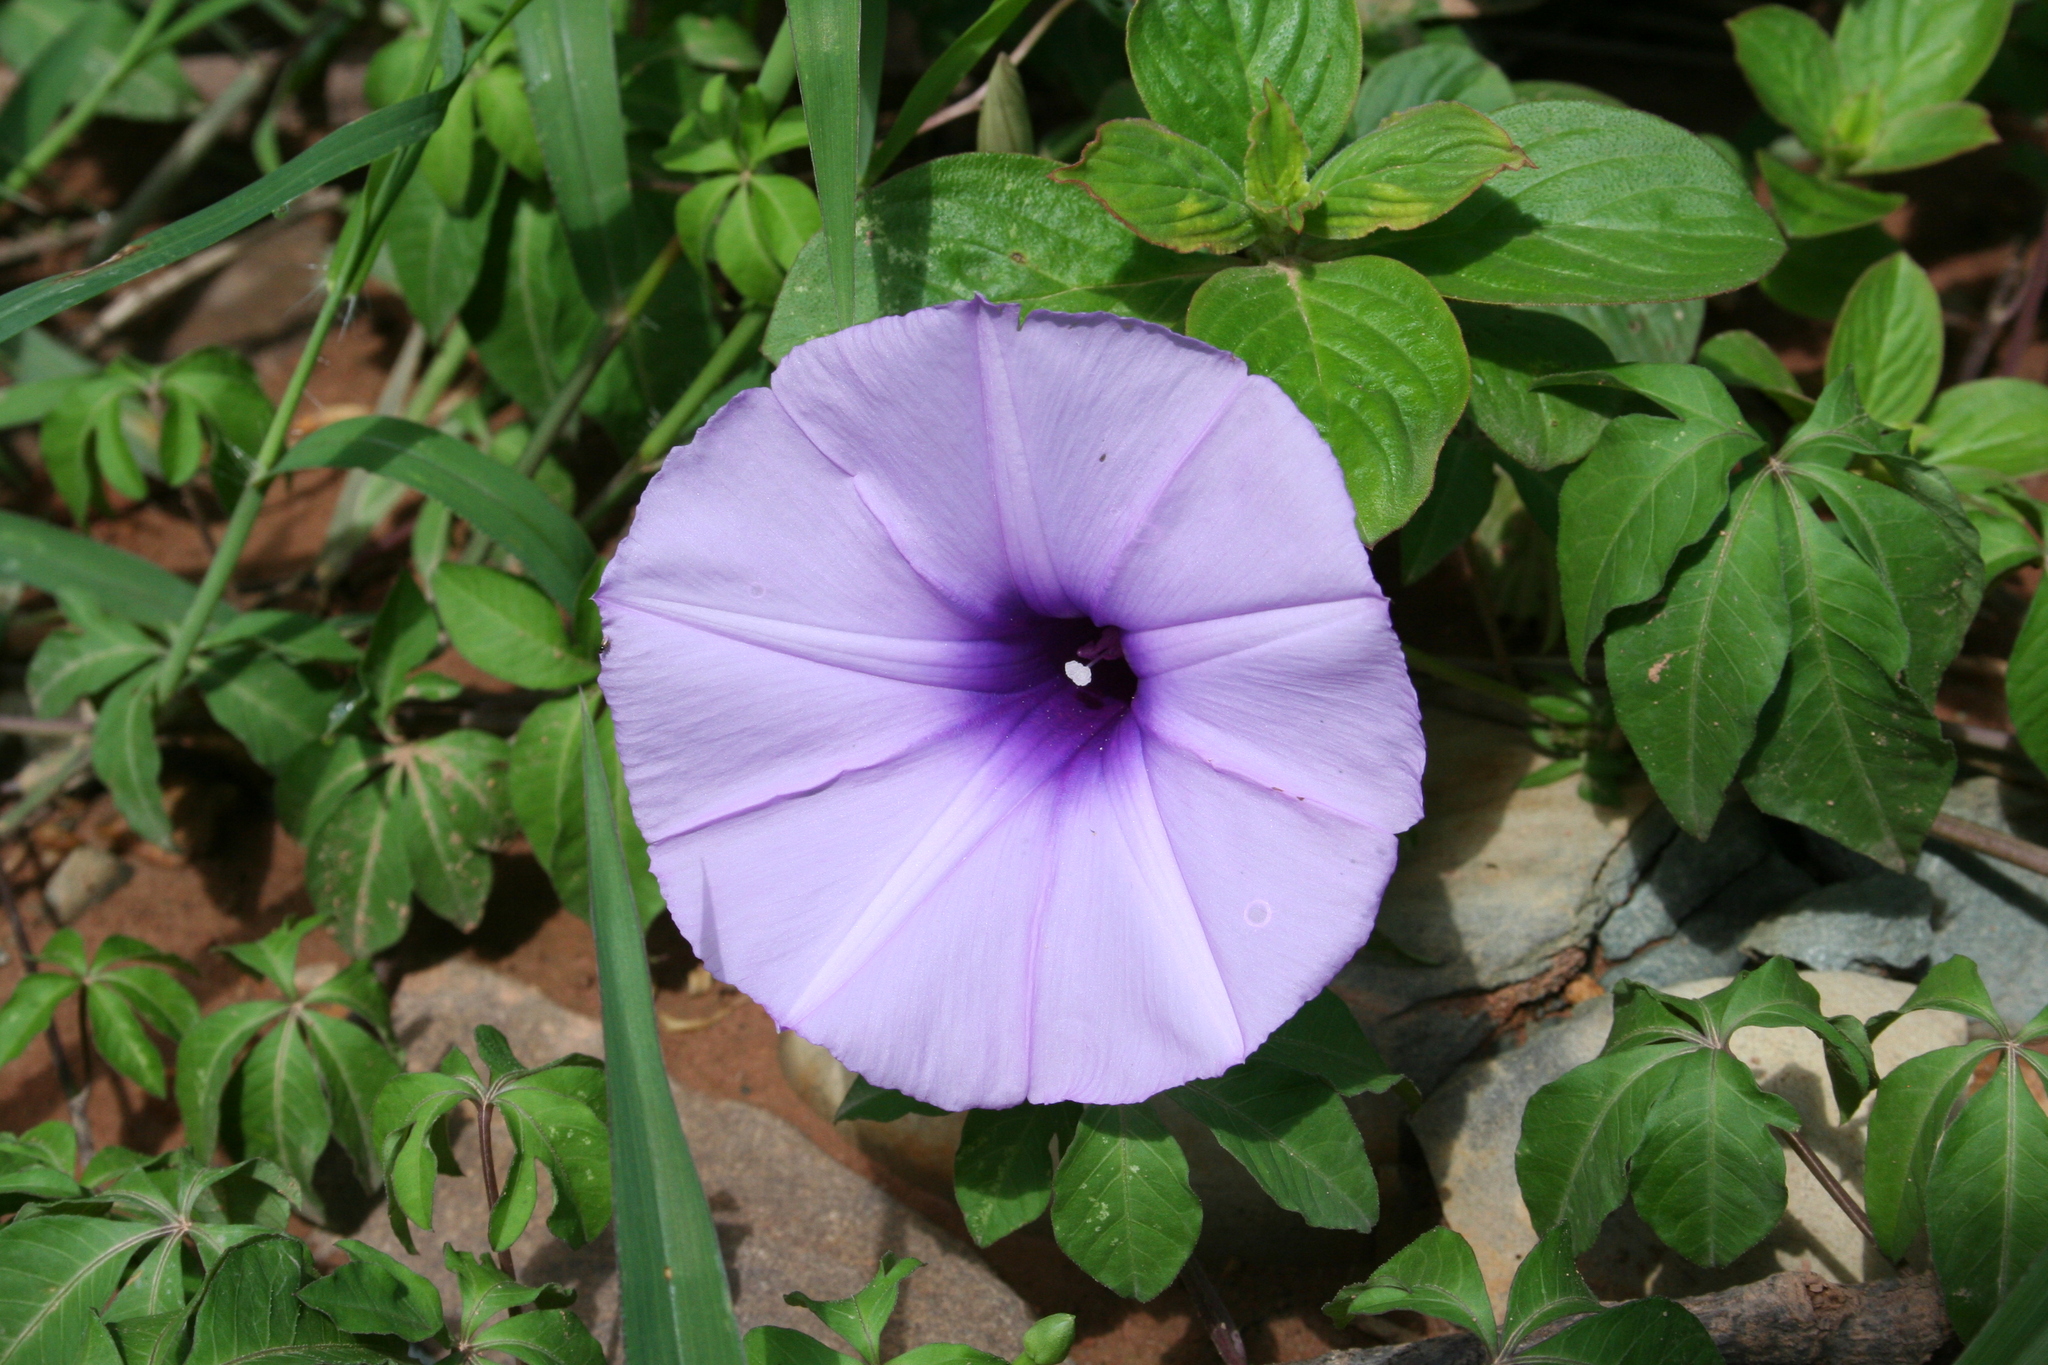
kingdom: Plantae
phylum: Tracheophyta
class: Magnoliopsida
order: Solanales
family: Convolvulaceae
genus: Ipomoea
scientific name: Ipomoea cairica
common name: Mile a minute vine
